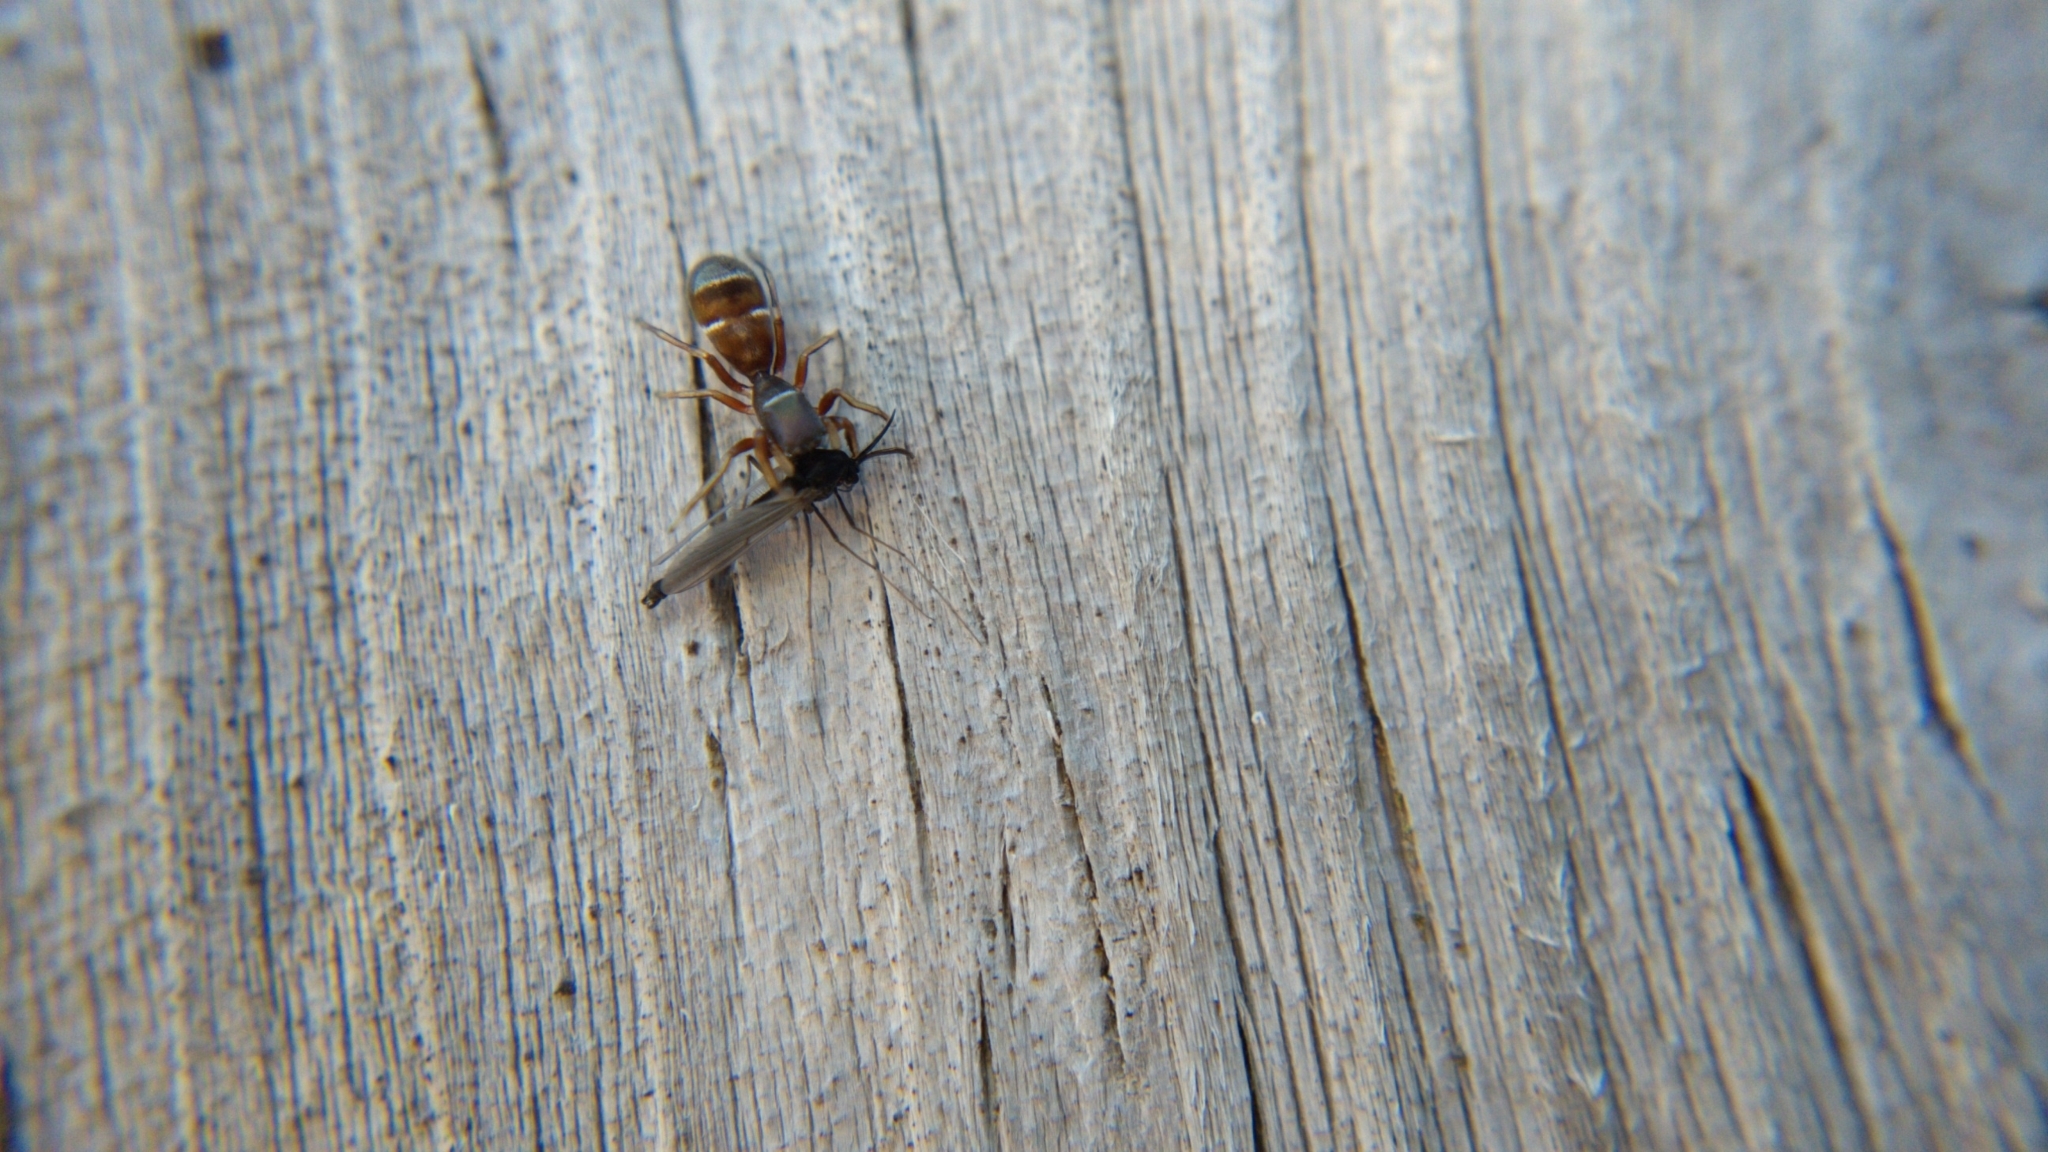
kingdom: Animalia
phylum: Arthropoda
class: Arachnida
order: Araneae
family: Salticidae
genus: Synageles
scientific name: Synageles venator
